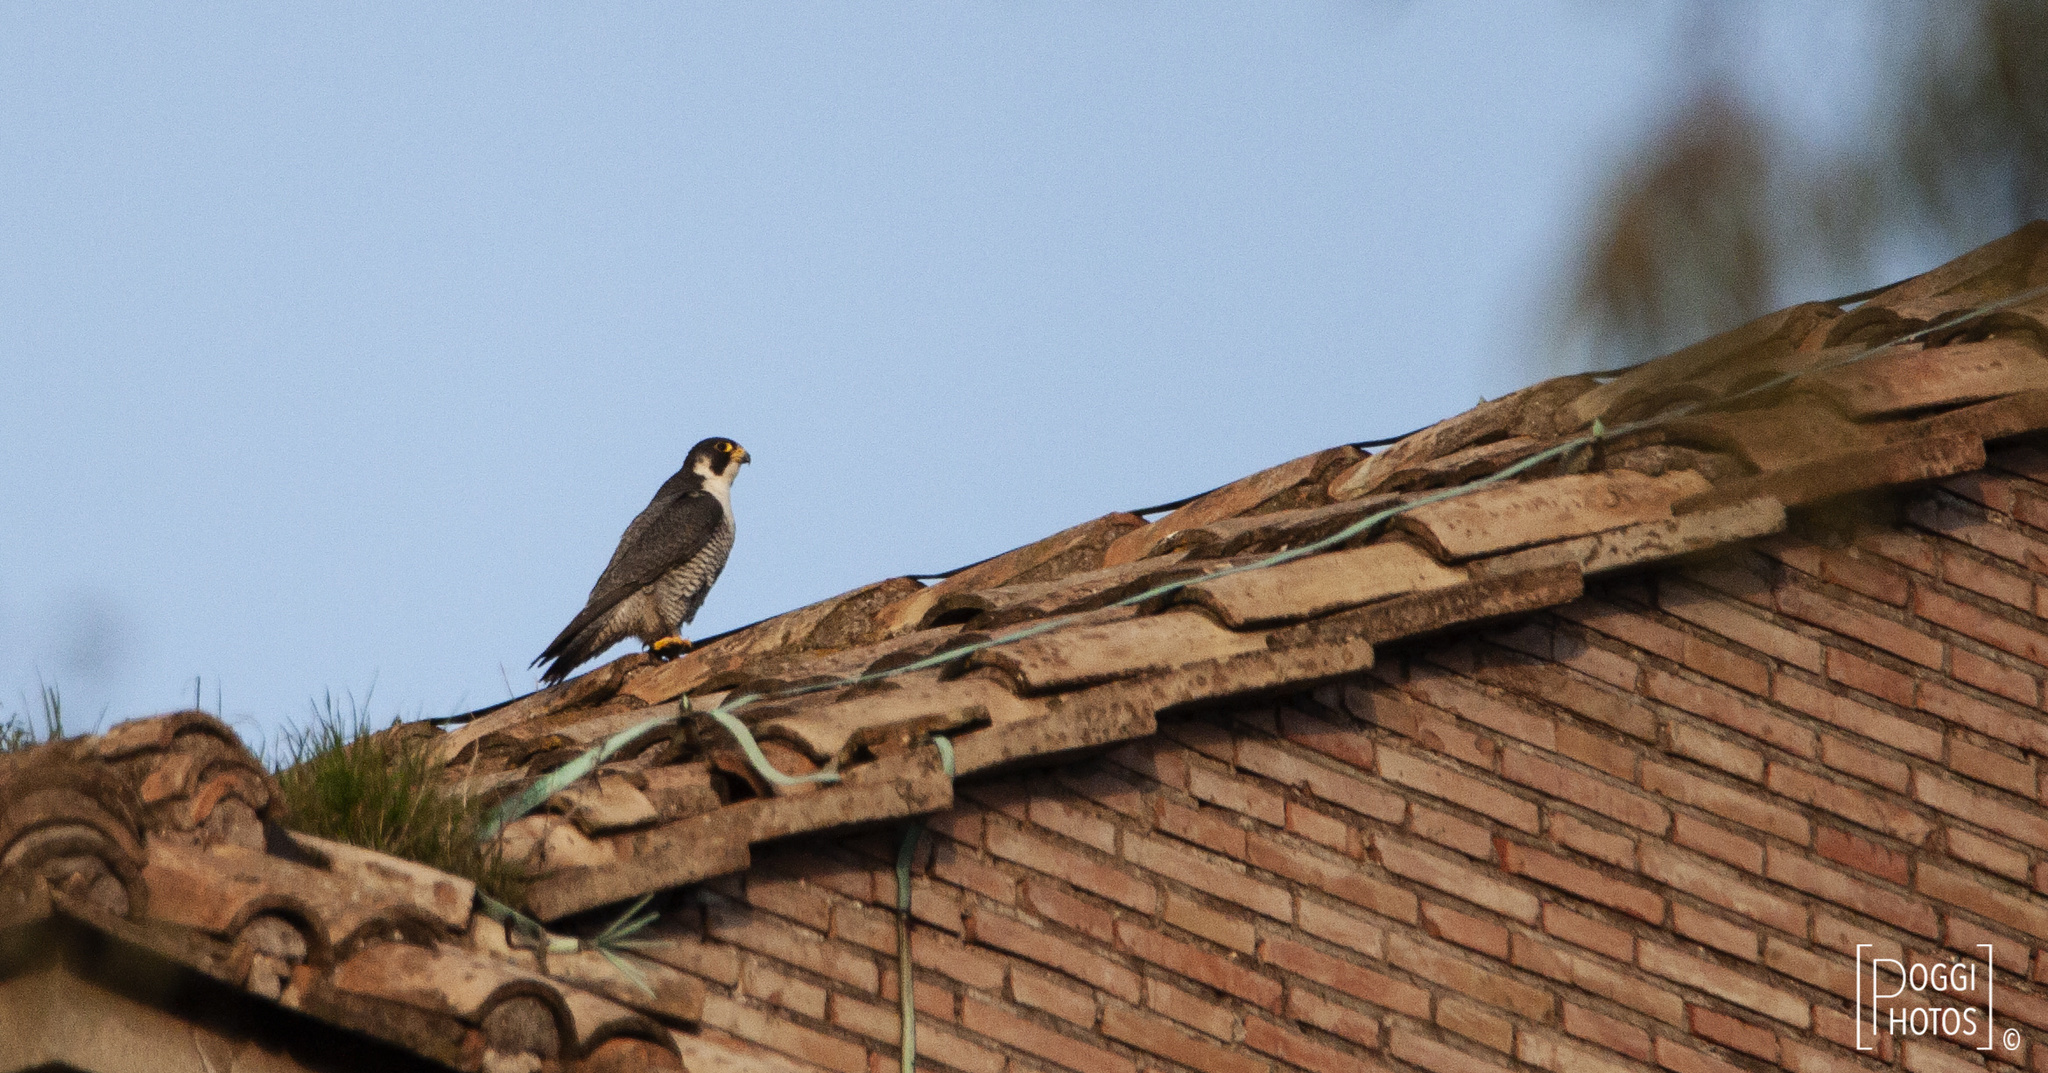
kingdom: Animalia
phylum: Chordata
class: Aves
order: Falconiformes
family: Falconidae
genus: Falco
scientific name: Falco peregrinus
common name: Peregrine falcon
